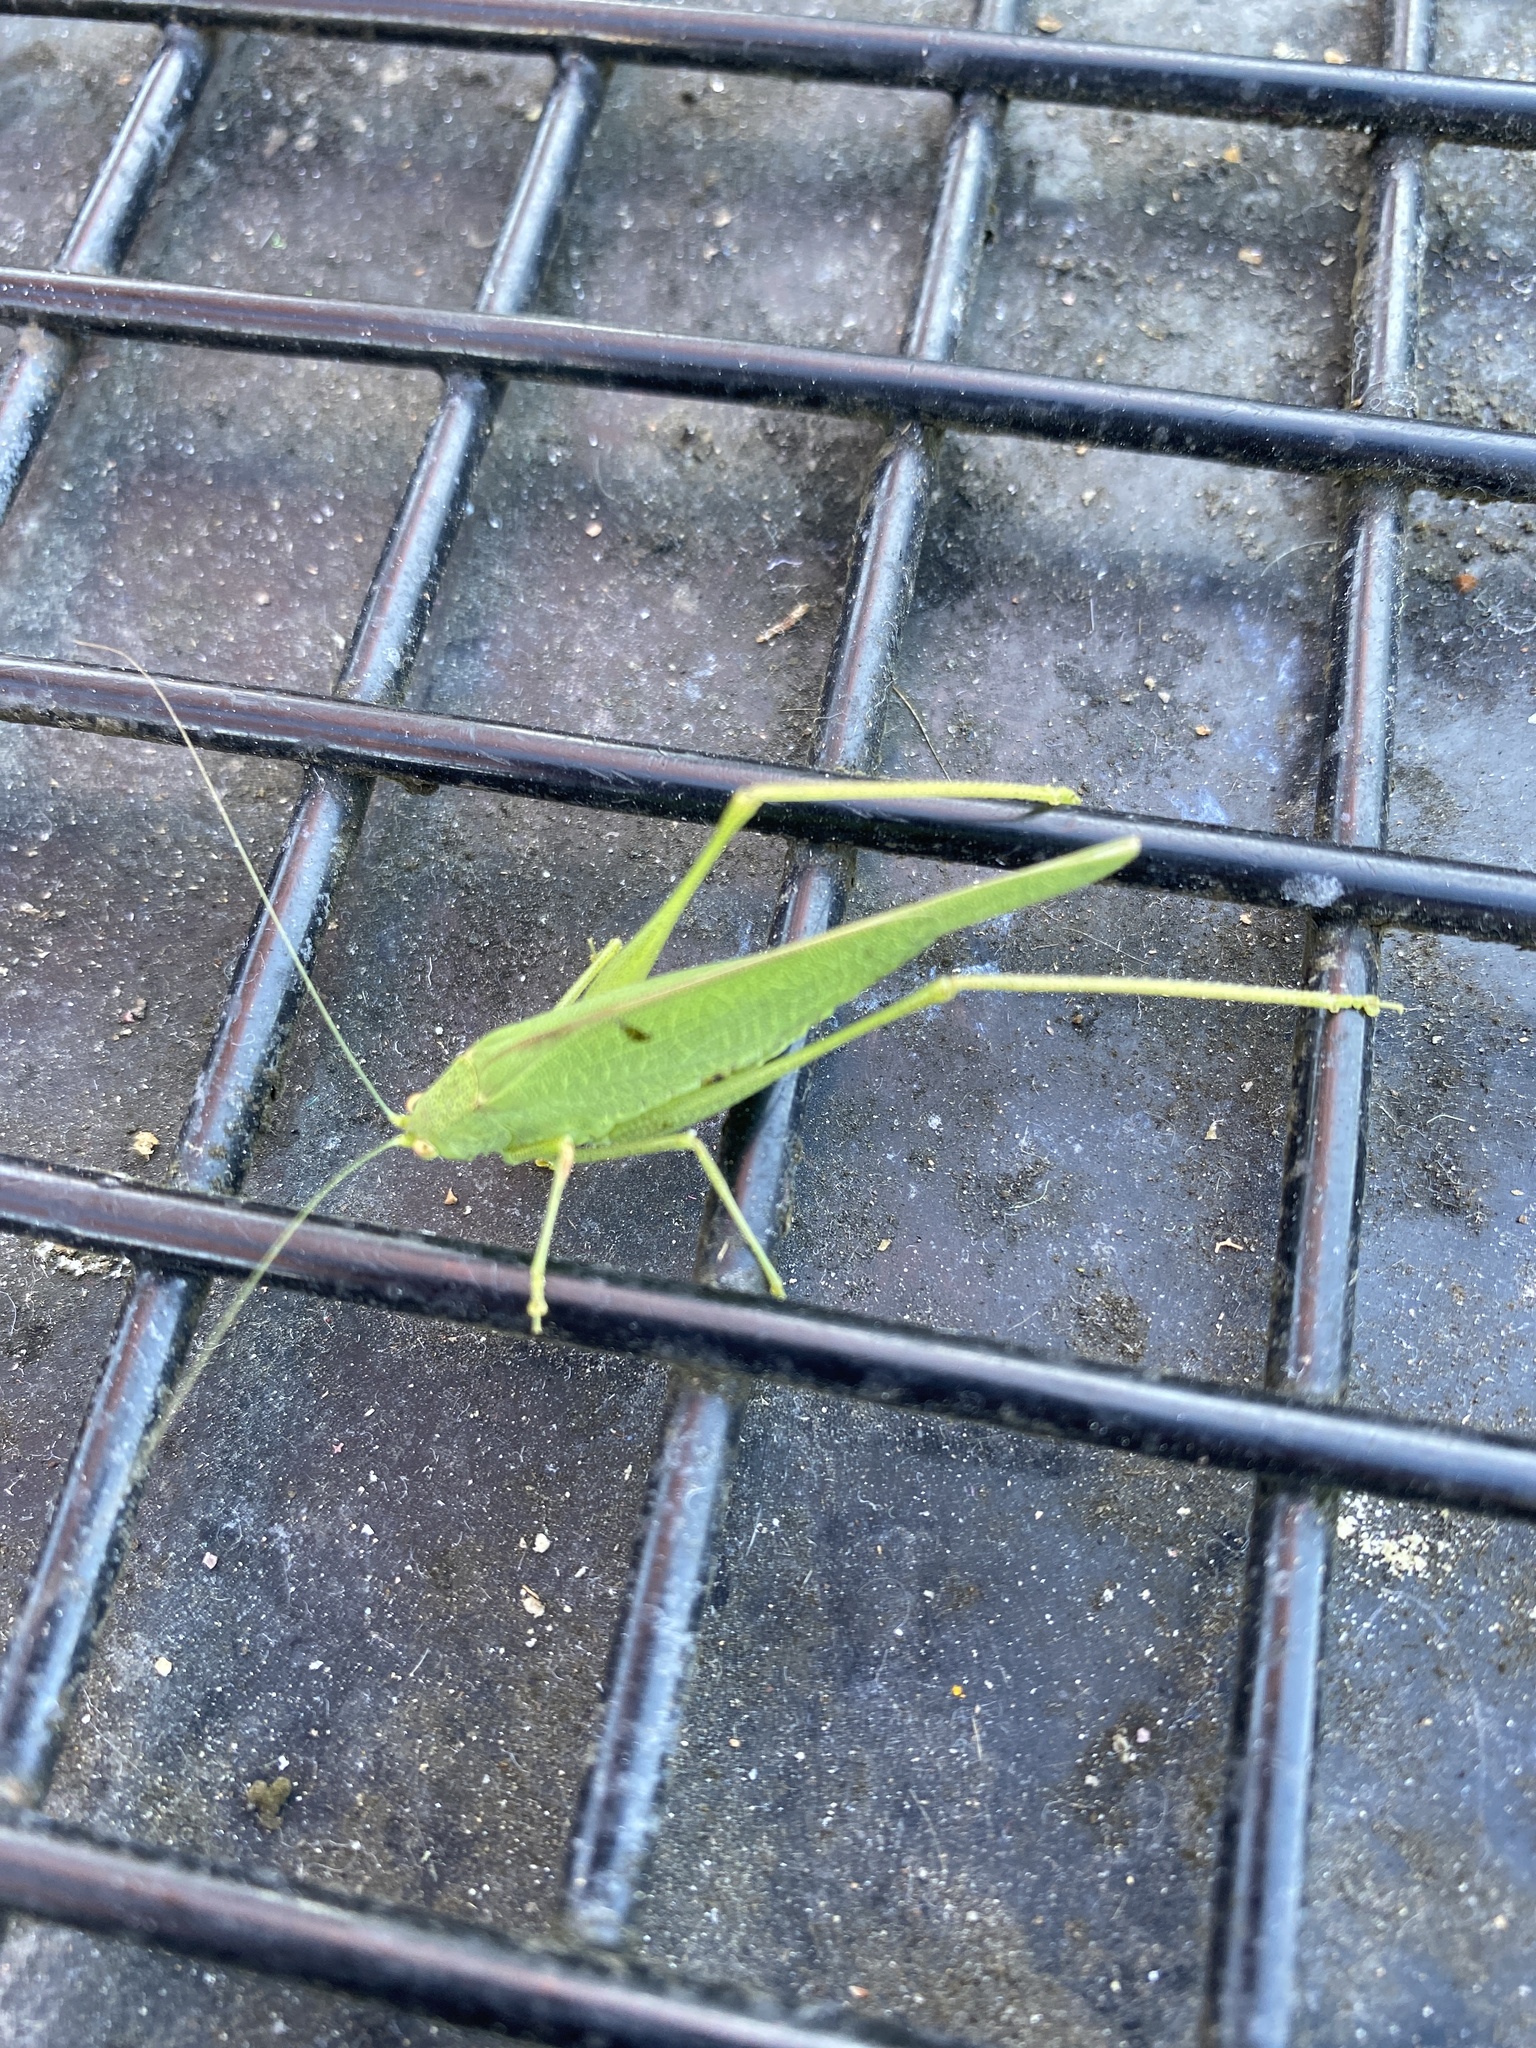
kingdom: Animalia
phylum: Arthropoda
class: Insecta
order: Orthoptera
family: Tettigoniidae
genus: Phaneroptera
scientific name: Phaneroptera nana
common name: Southern sickle bush-cricket
